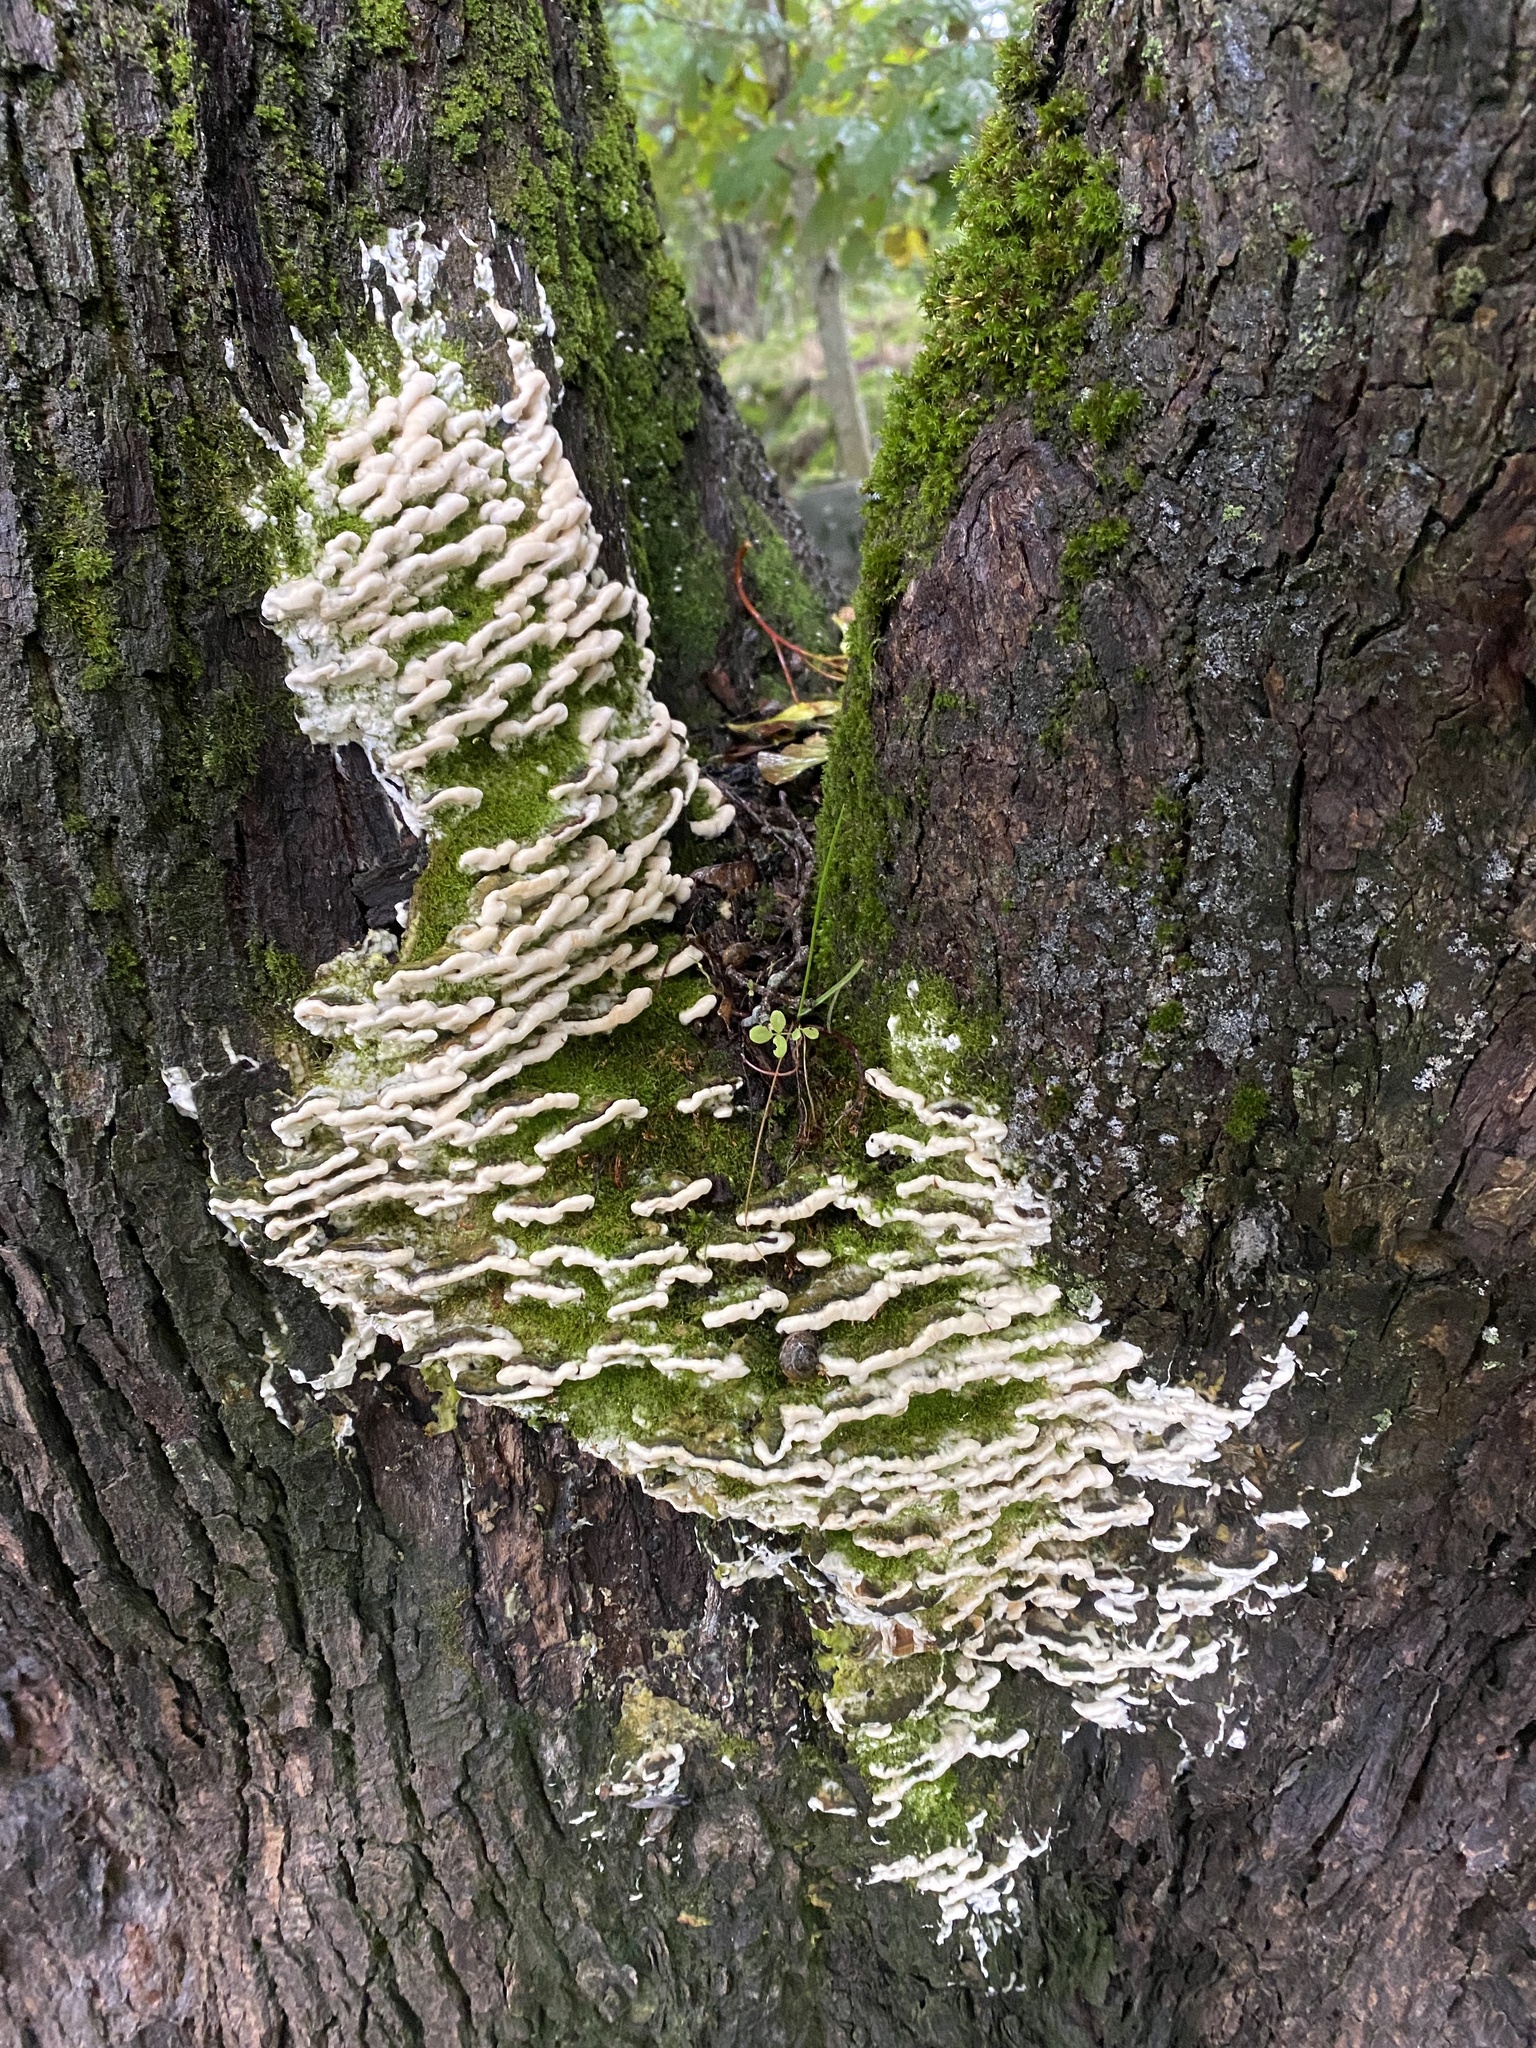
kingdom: Fungi
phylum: Basidiomycota
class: Agaricomycetes
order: Hymenochaetales
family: Oxyporaceae
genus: Oxyporus
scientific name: Oxyporus populinus
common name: Poplar bracket
